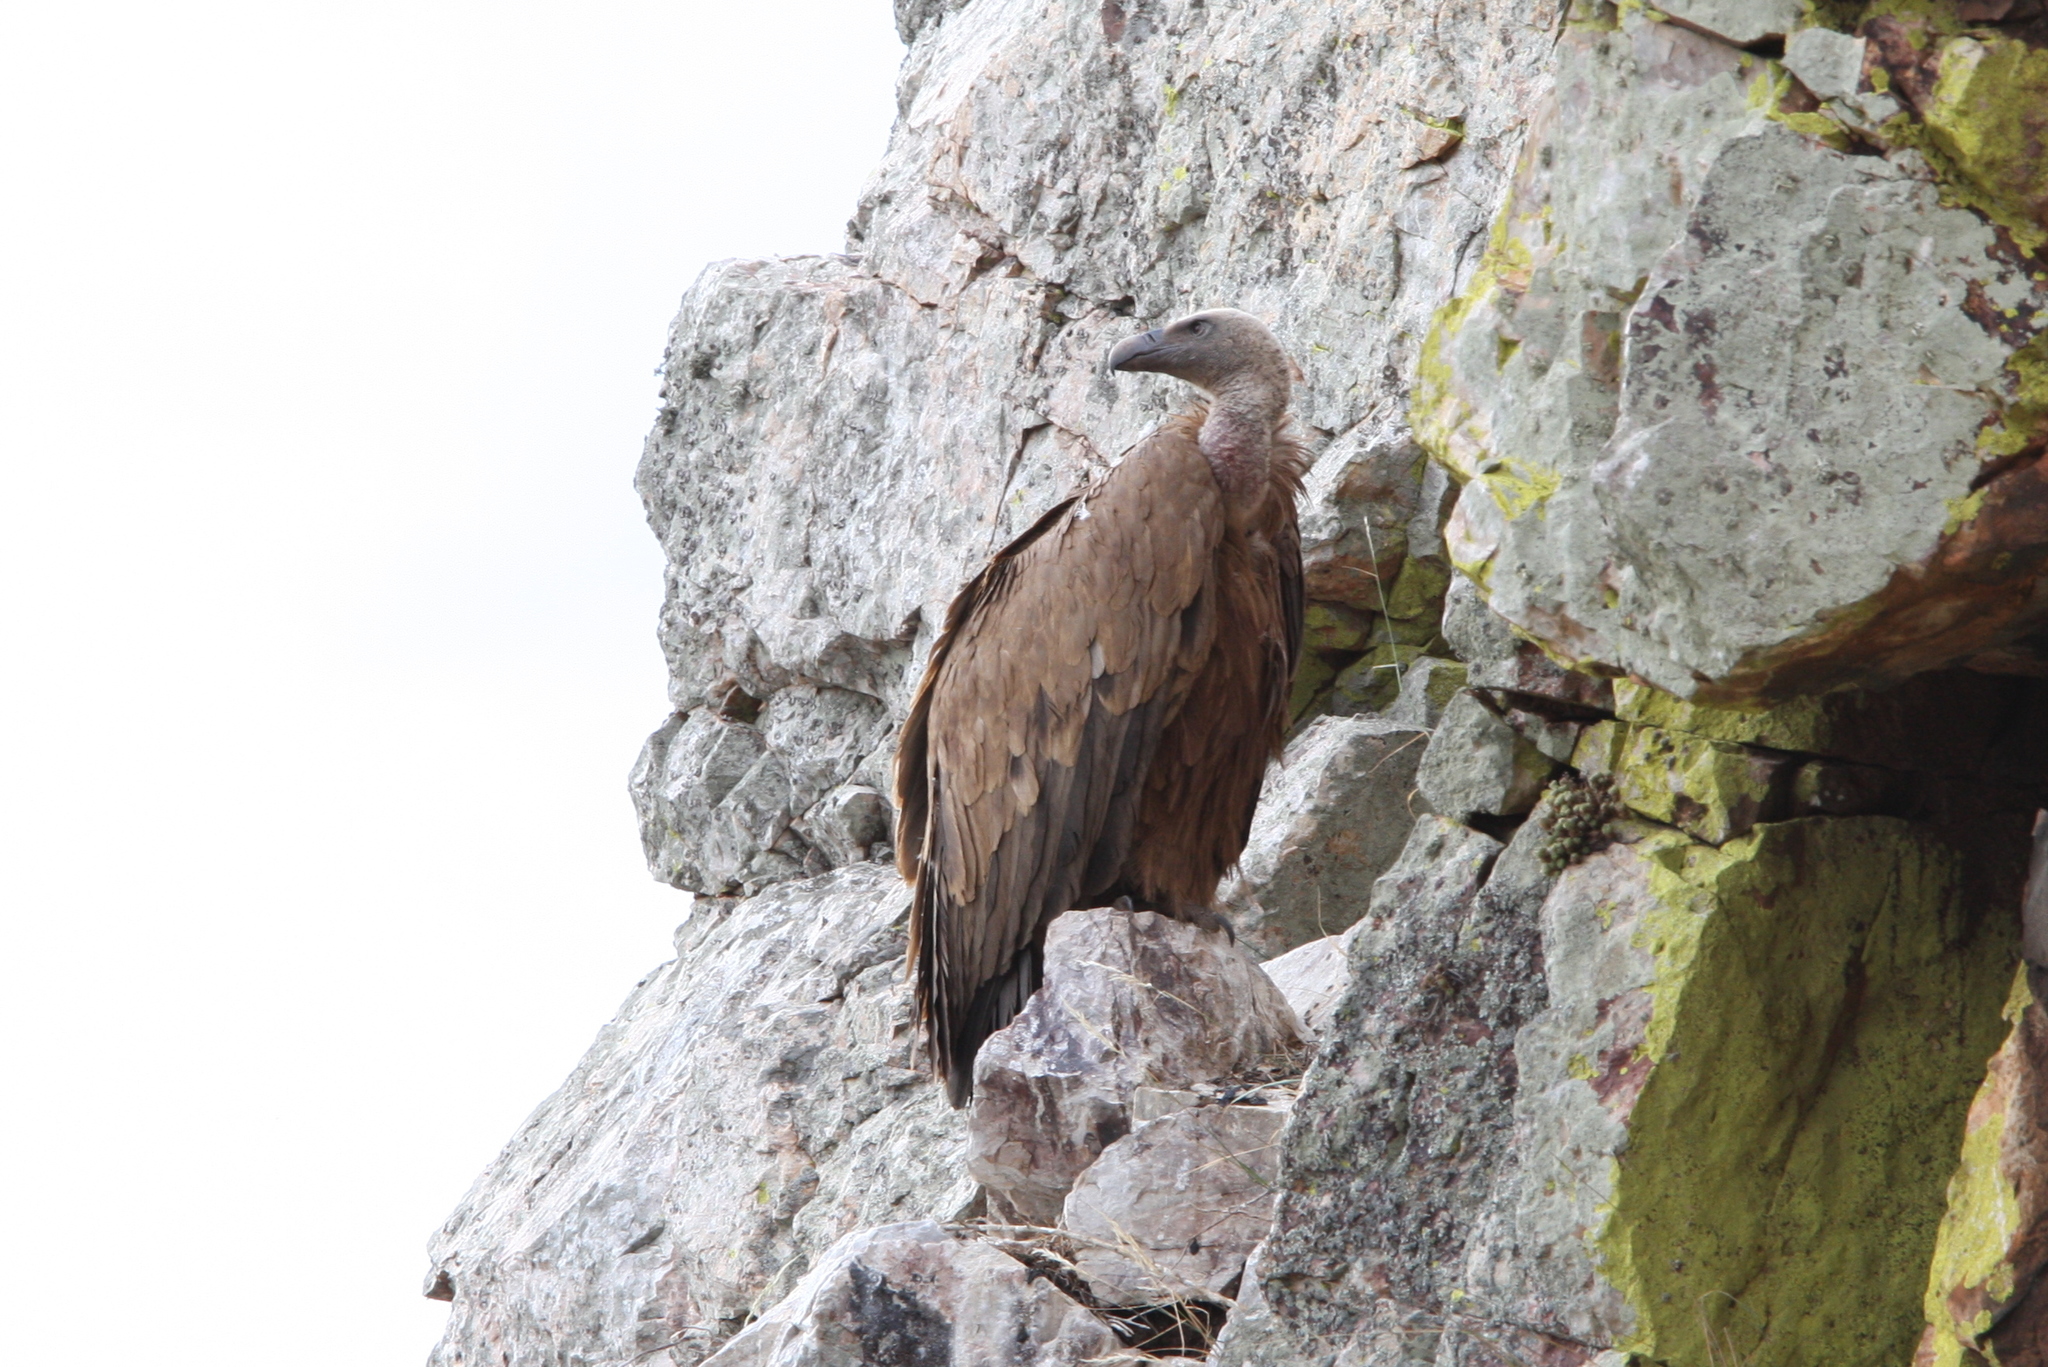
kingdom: Animalia
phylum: Chordata
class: Aves
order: Accipitriformes
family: Accipitridae
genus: Gyps
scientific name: Gyps fulvus
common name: Griffon vulture
